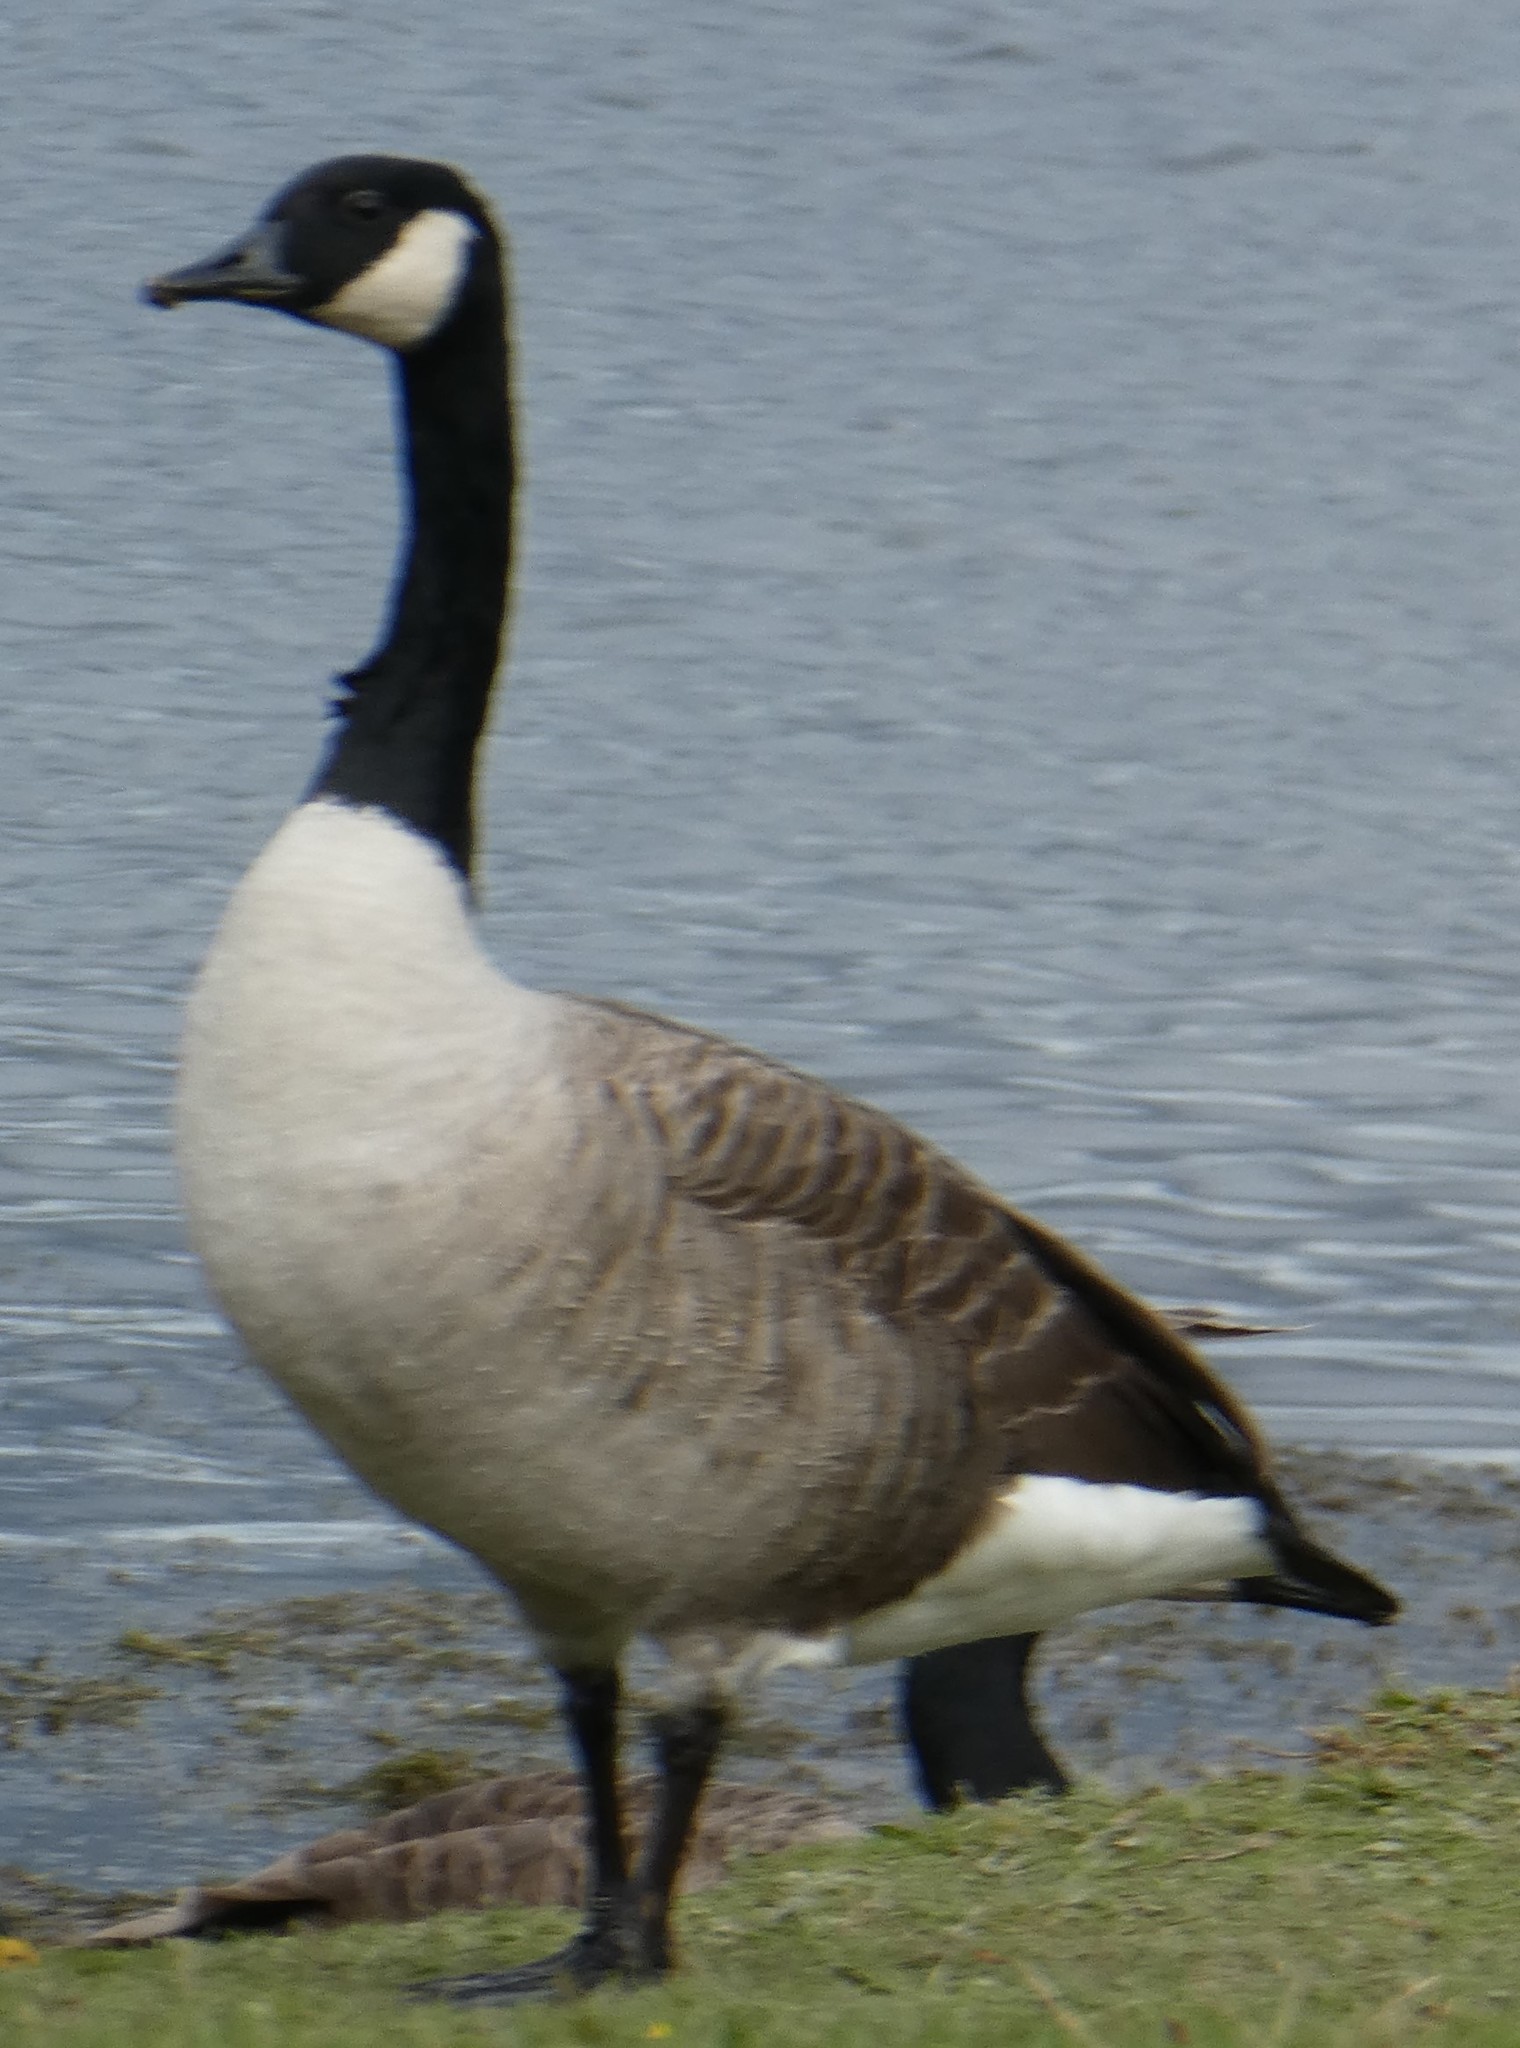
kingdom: Animalia
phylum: Chordata
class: Aves
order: Anseriformes
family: Anatidae
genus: Branta
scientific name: Branta canadensis
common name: Canada goose
